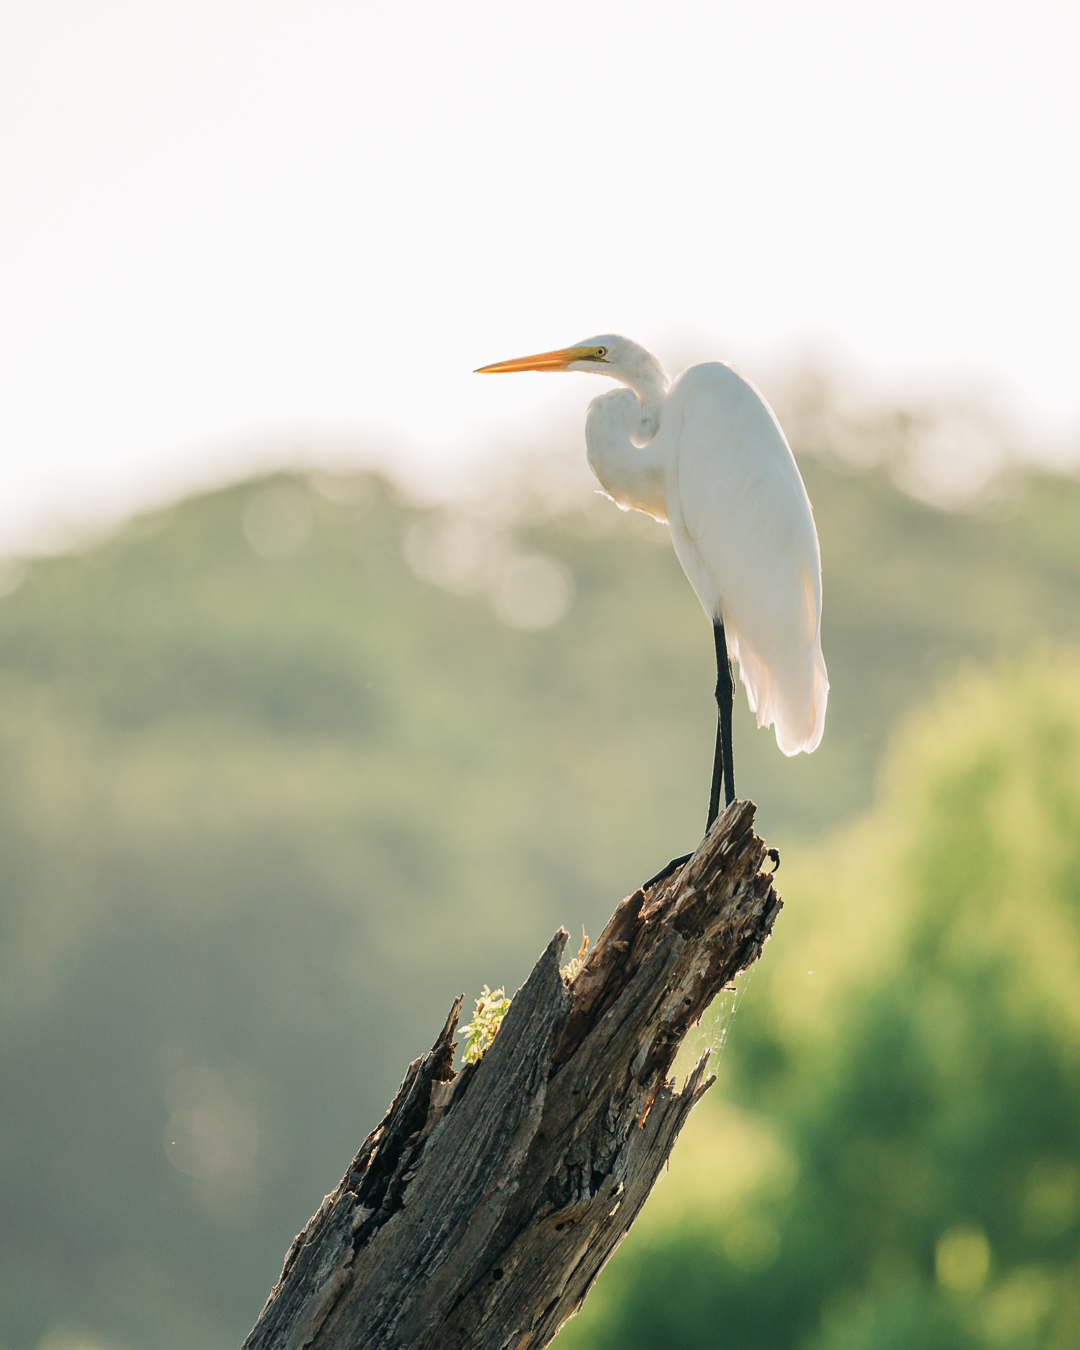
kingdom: Animalia
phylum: Chordata
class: Aves
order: Pelecaniformes
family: Ardeidae
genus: Ardea
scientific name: Ardea alba
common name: Great egret
